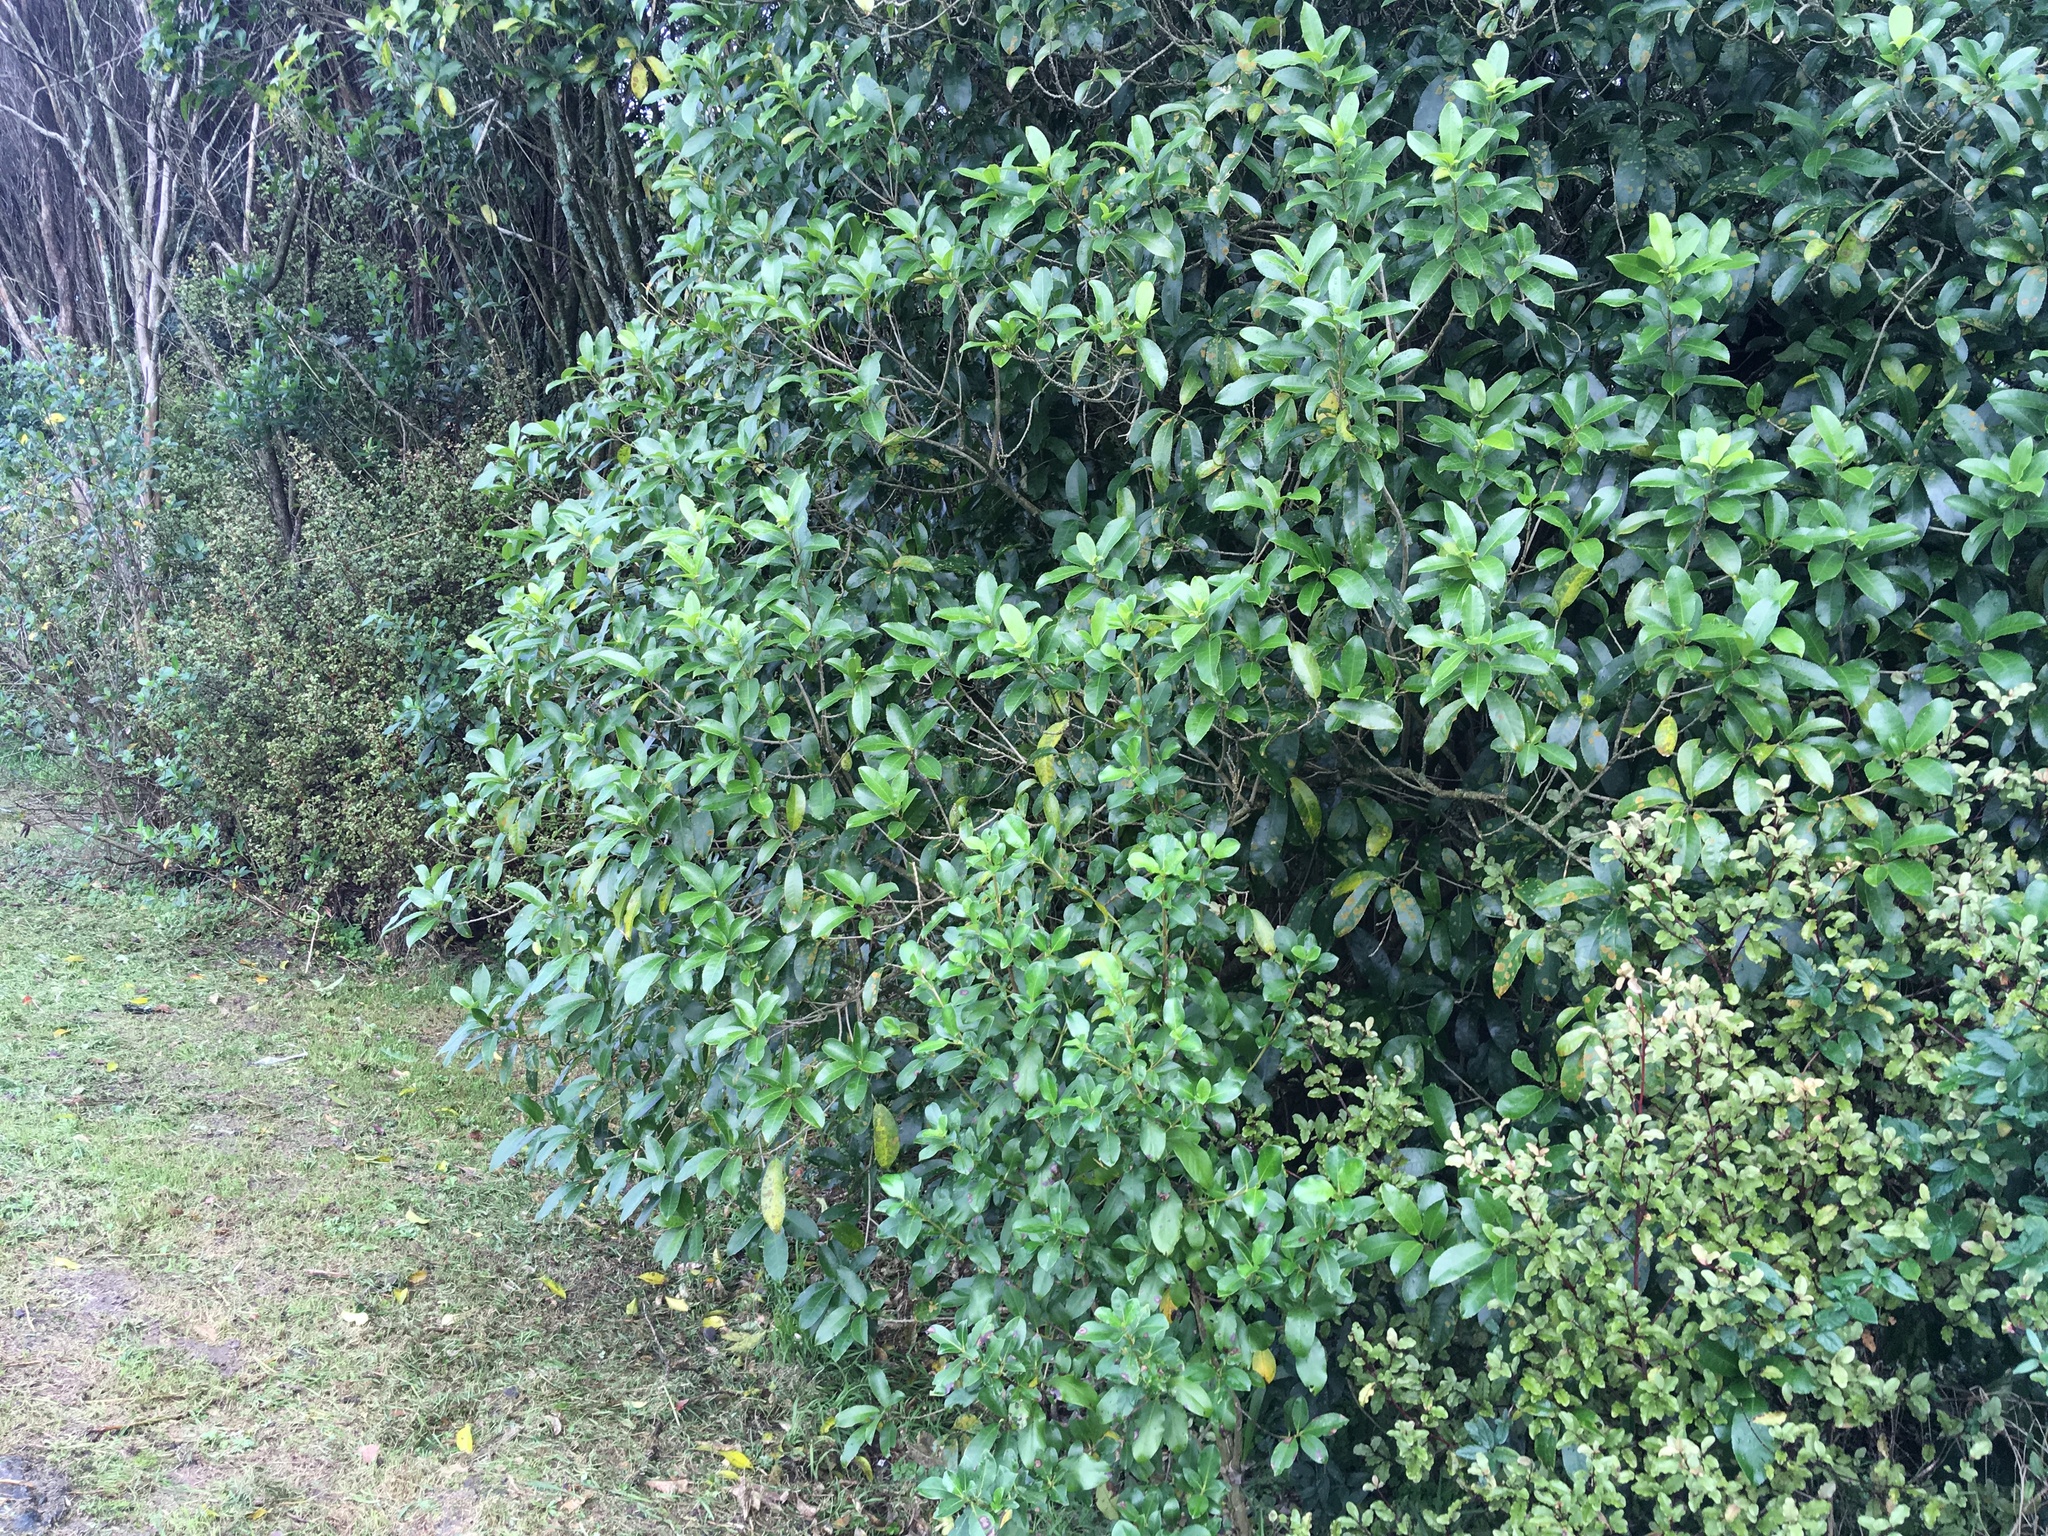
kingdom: Plantae
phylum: Tracheophyta
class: Magnoliopsida
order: Malpighiales
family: Violaceae
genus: Melicytus
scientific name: Melicytus ramiflorus
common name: Mahoe
